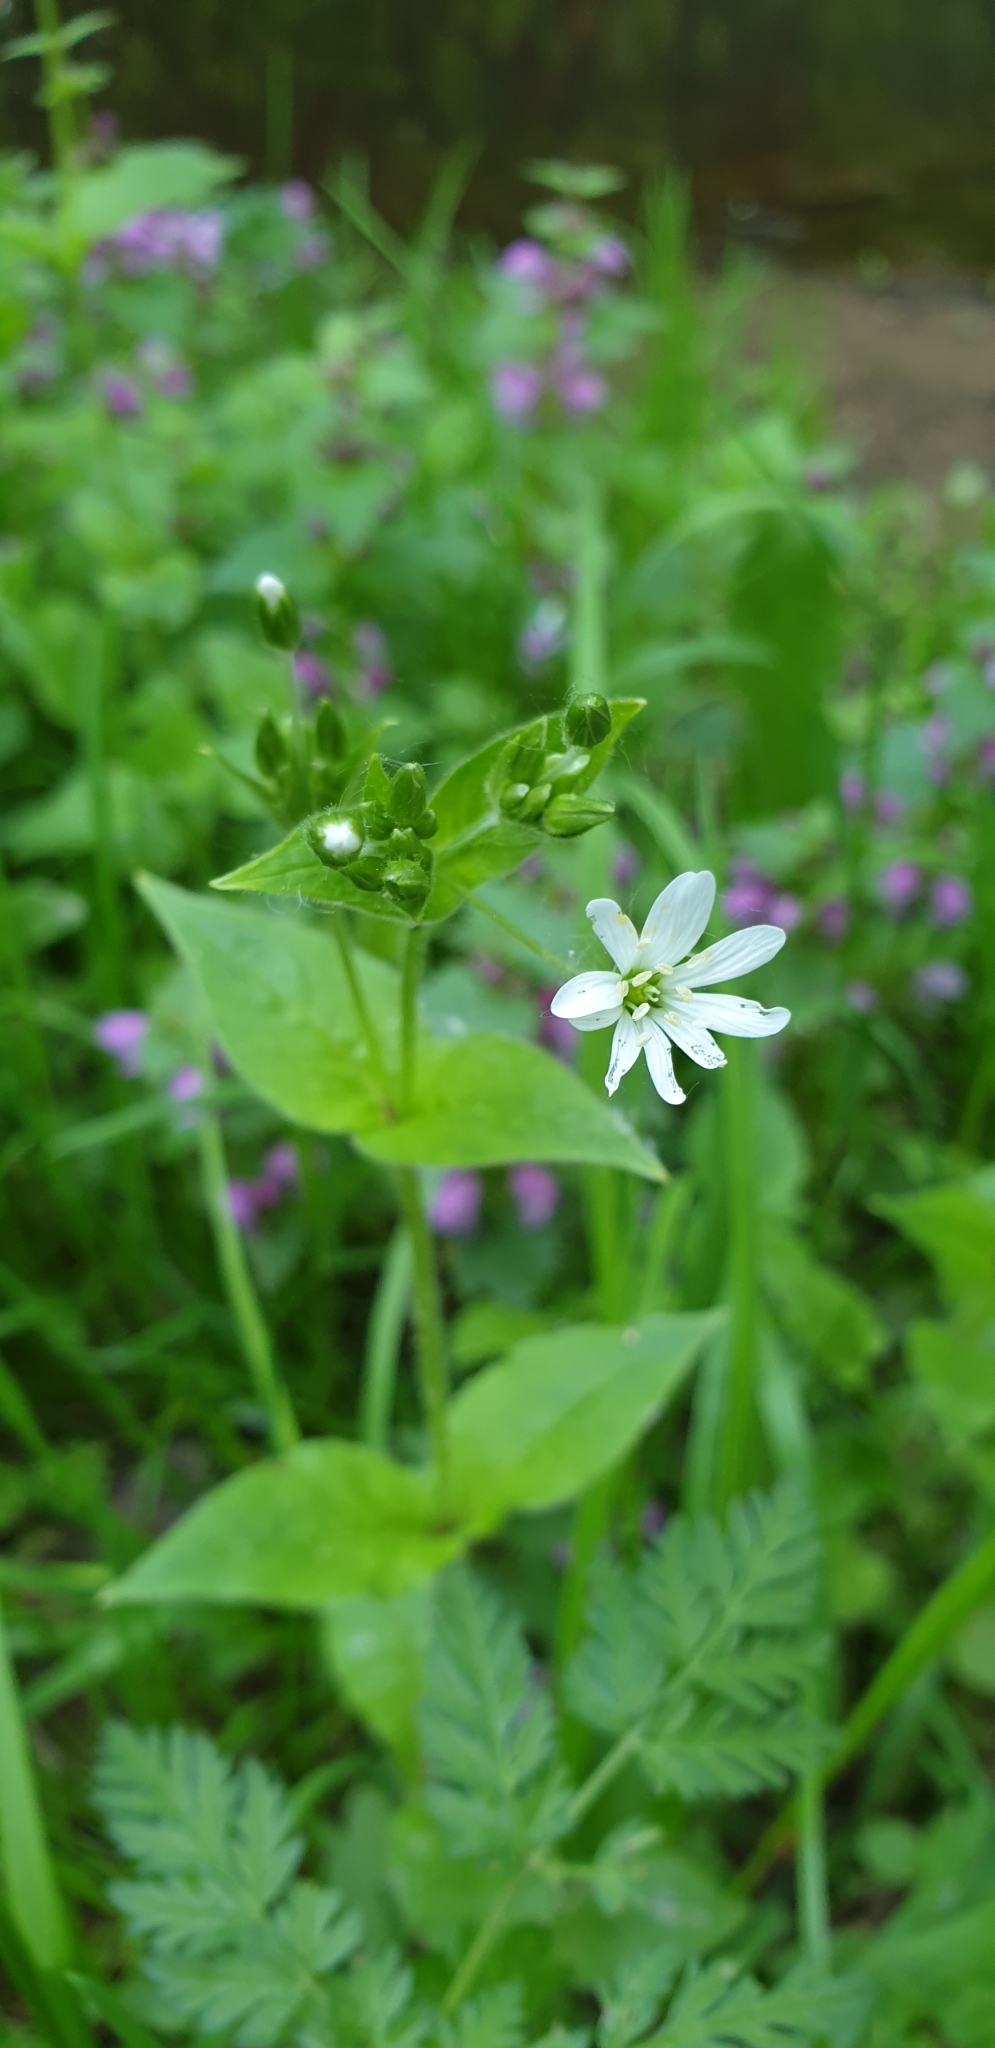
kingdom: Plantae
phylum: Tracheophyta
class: Magnoliopsida
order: Caryophyllales
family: Caryophyllaceae
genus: Stellaria
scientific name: Stellaria nemorum
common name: Wood stitchwort
